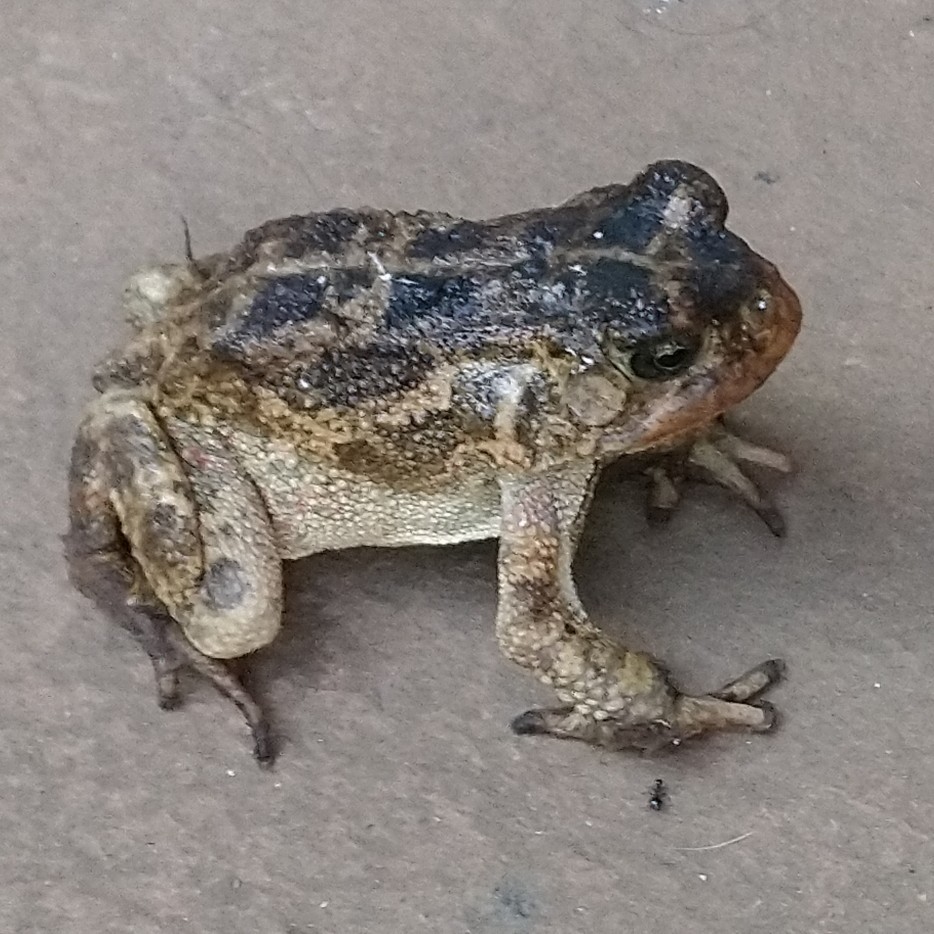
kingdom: Animalia
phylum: Chordata
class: Amphibia
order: Anura
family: Bufonidae
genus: Sclerophrys
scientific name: Sclerophrys gutturalis
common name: African common toad
